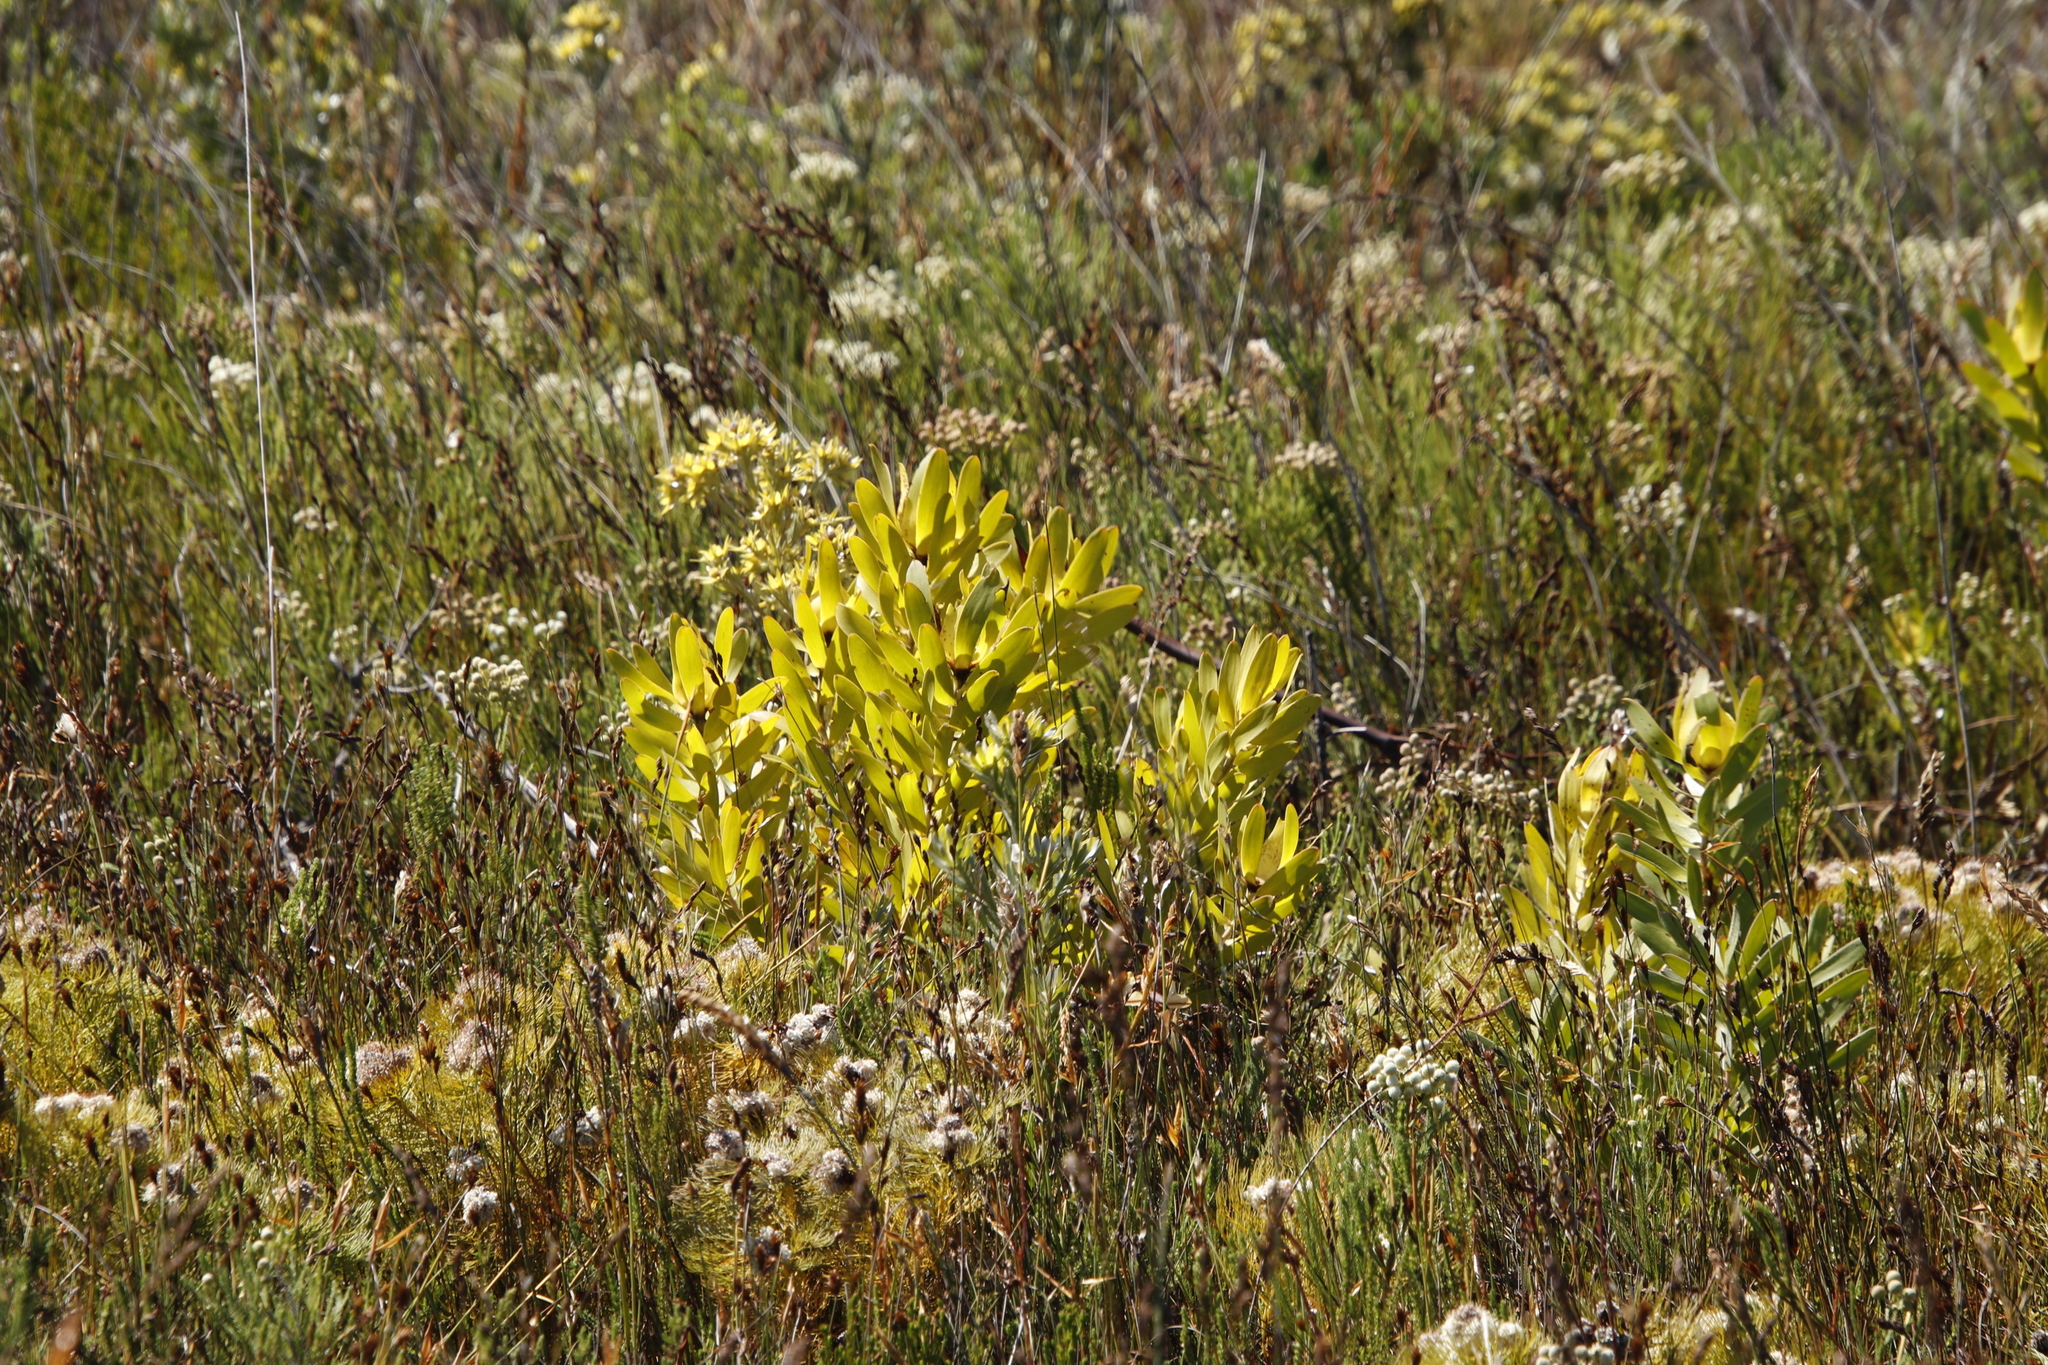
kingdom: Plantae
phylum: Tracheophyta
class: Magnoliopsida
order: Proteales
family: Proteaceae
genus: Leucadendron
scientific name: Leucadendron laureolum
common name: Golden sunshinebush
